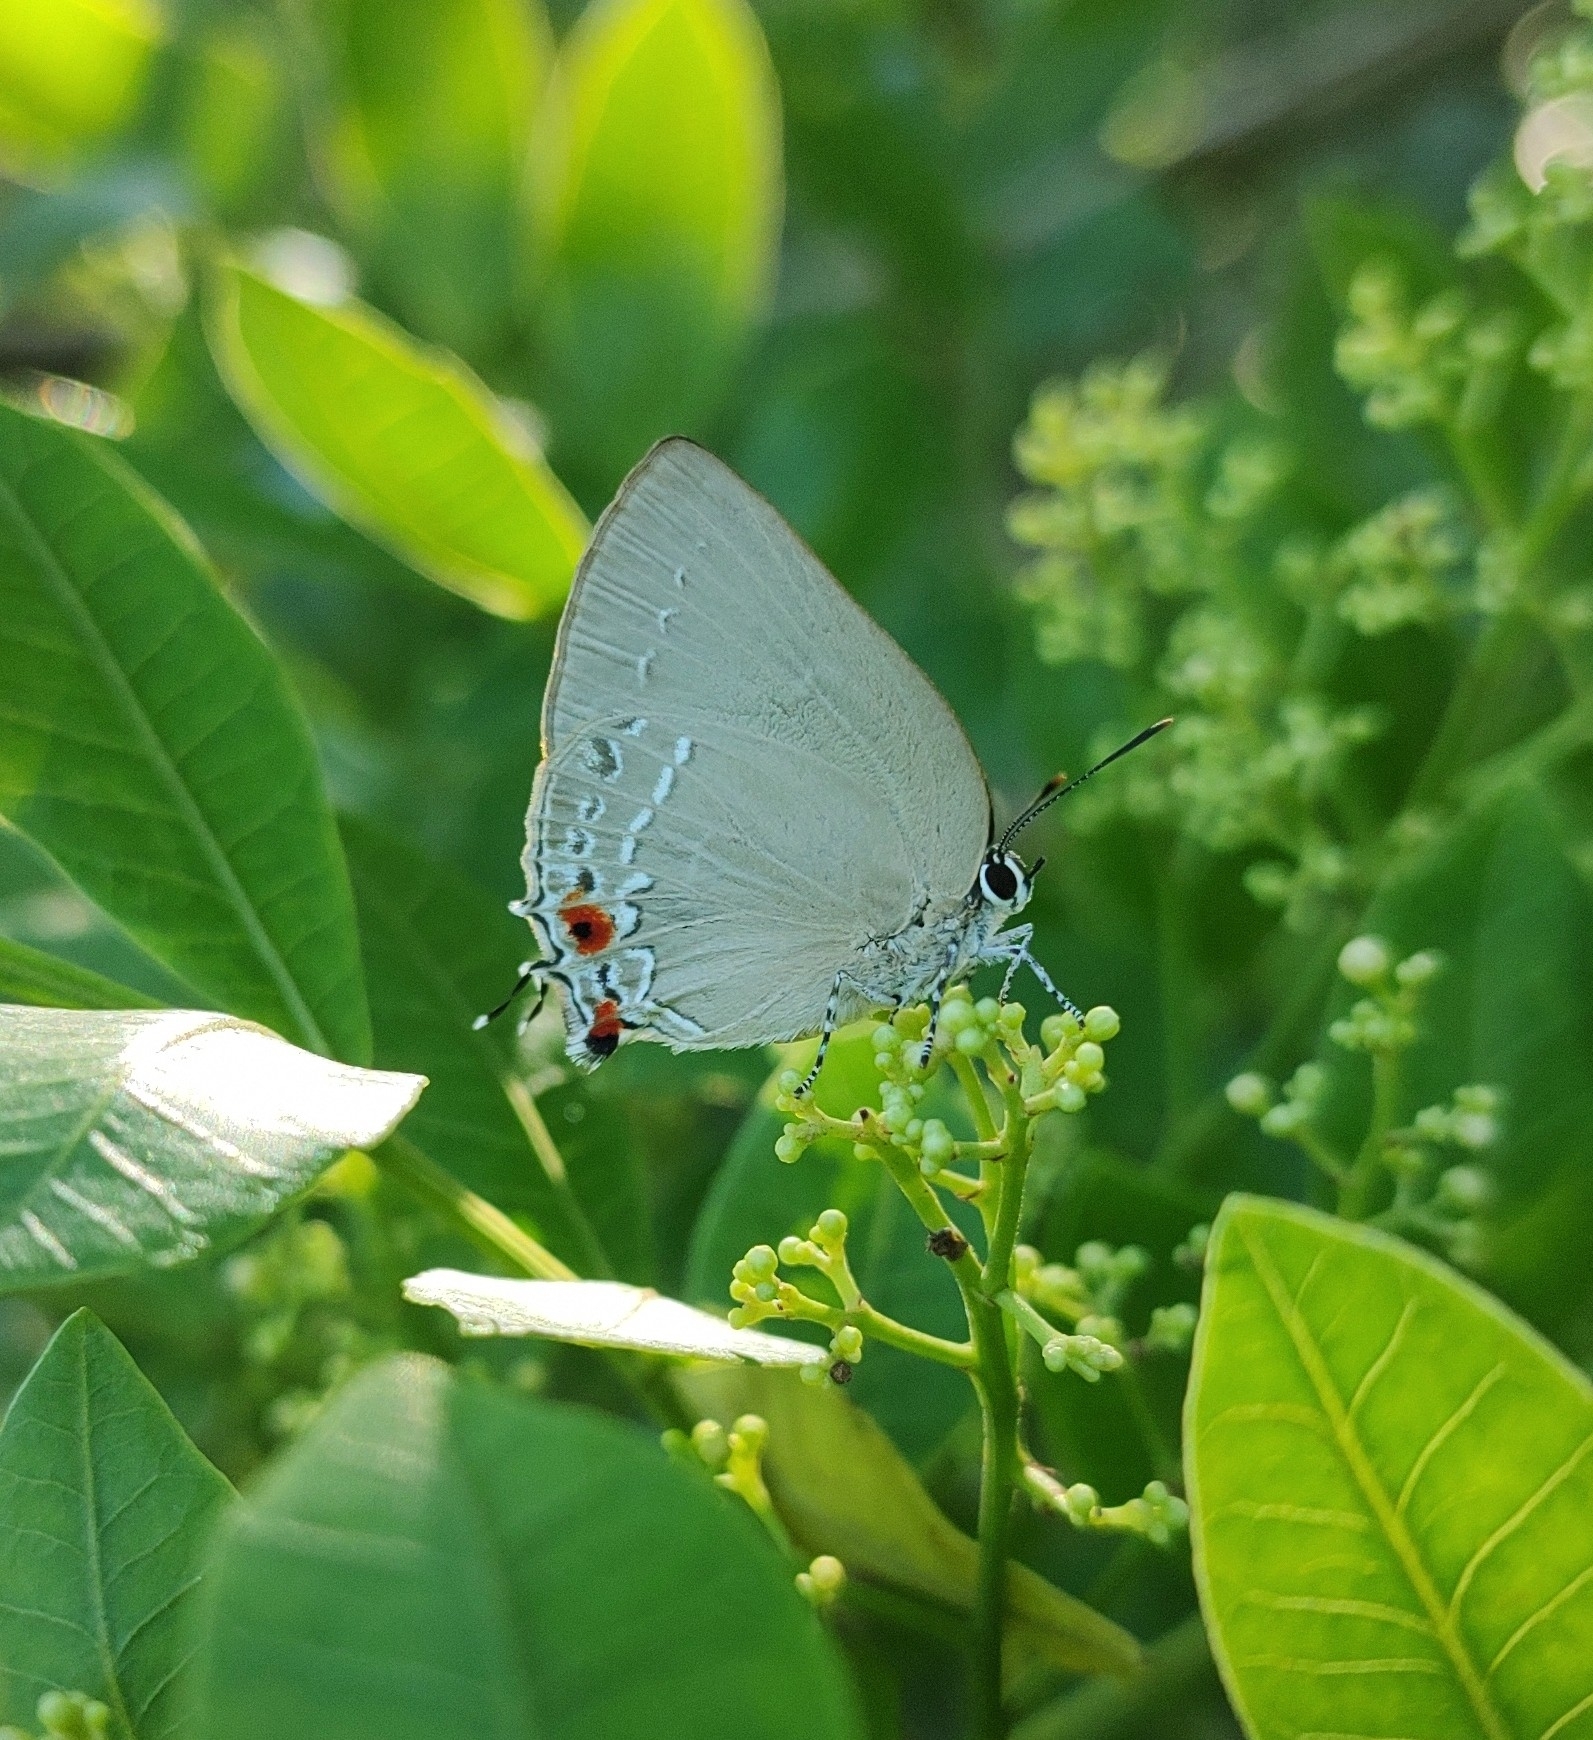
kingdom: Animalia
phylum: Arthropoda
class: Insecta
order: Lepidoptera
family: Lycaenidae
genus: Kolana
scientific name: Kolana
